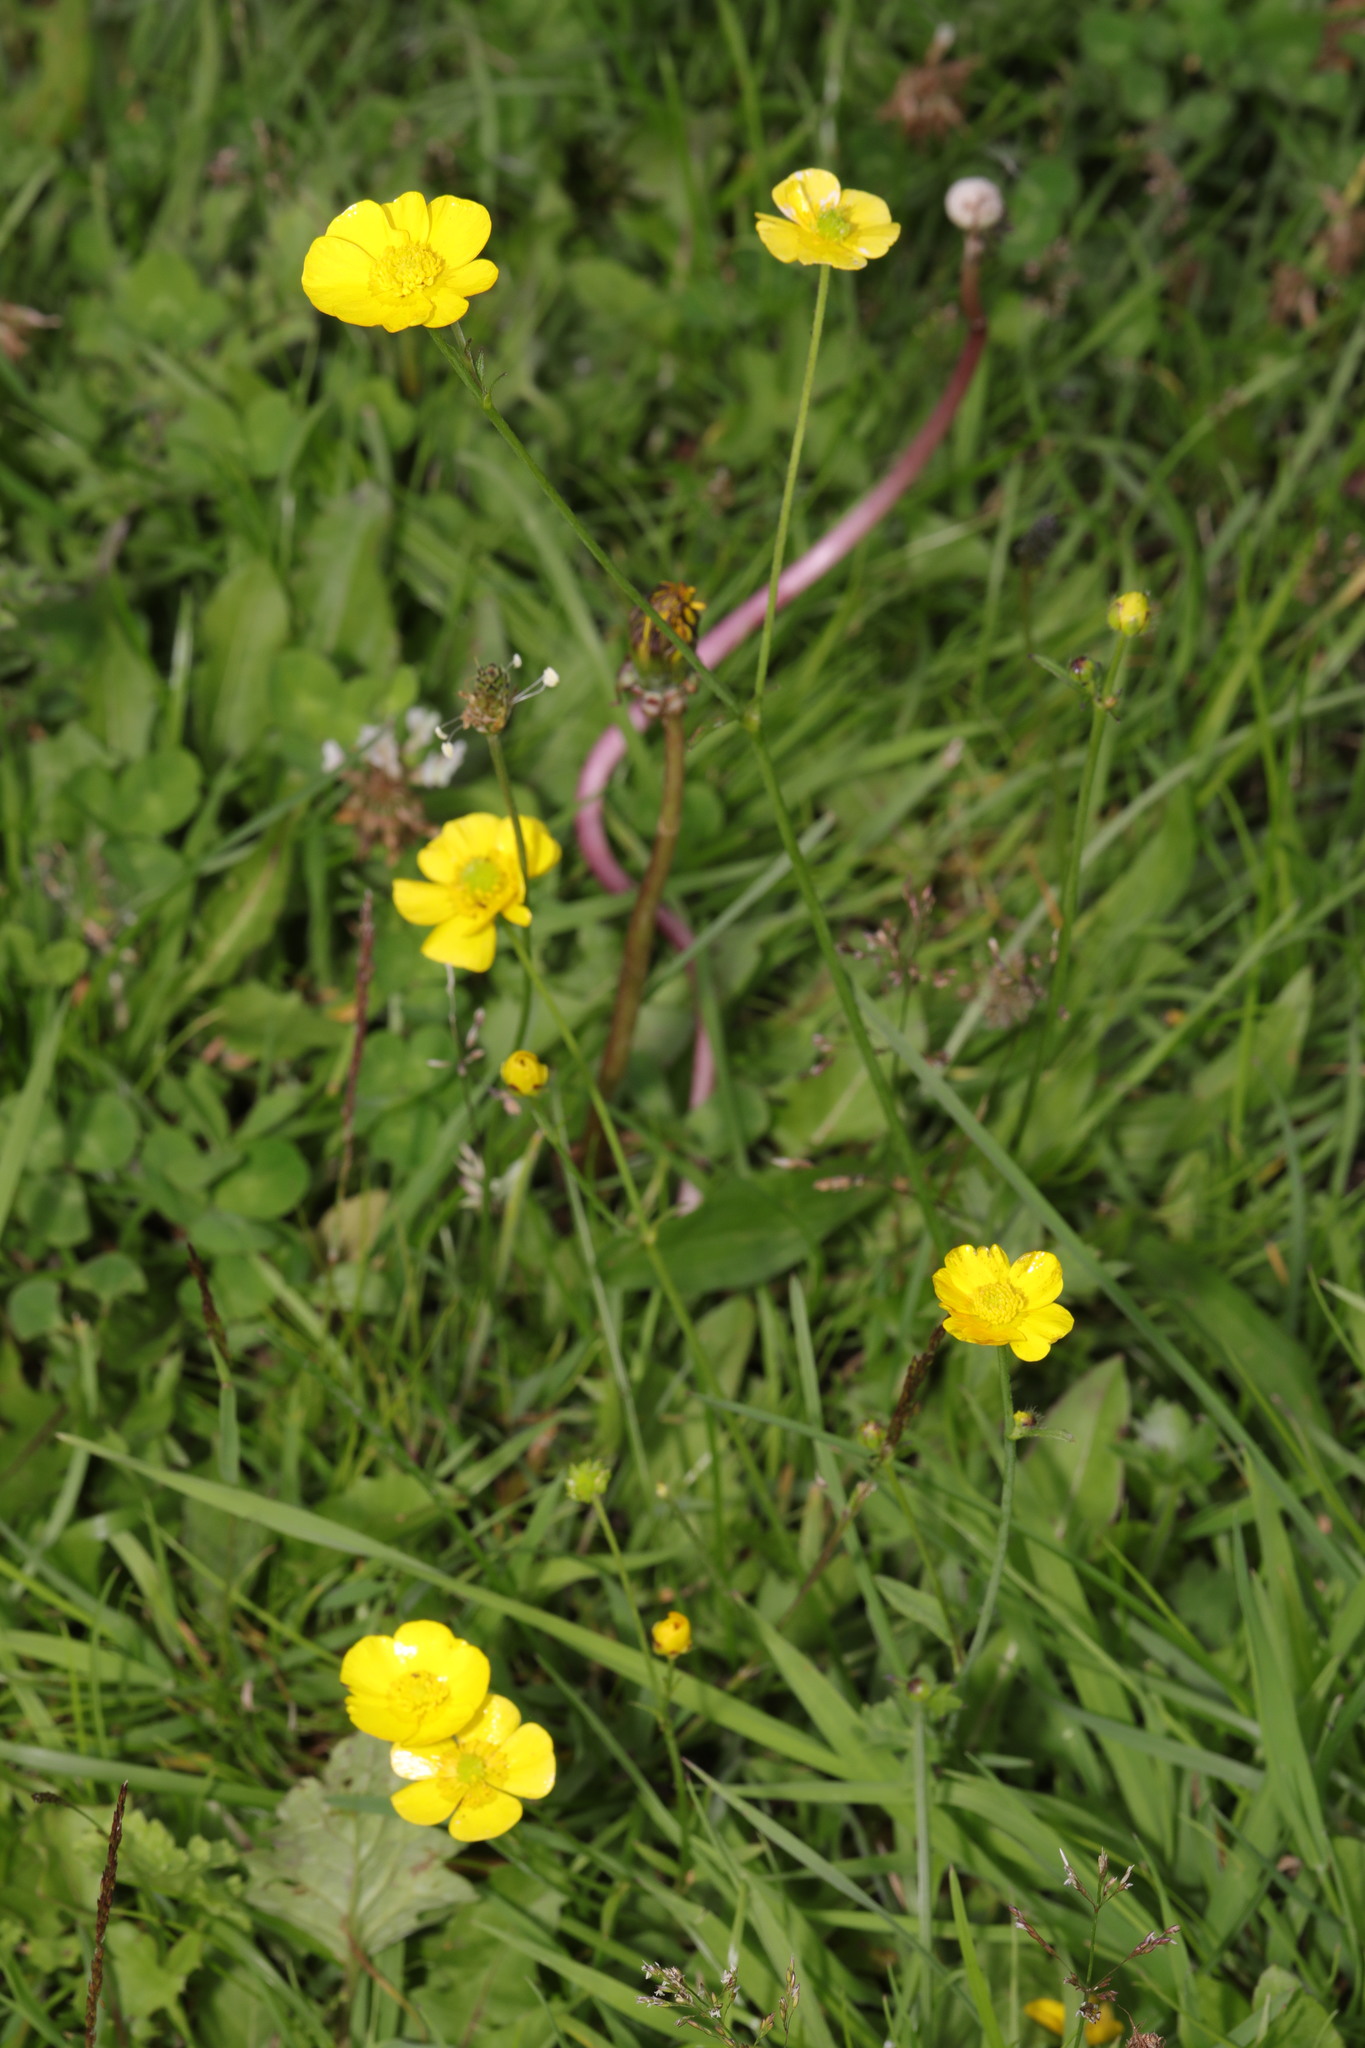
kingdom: Plantae
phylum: Tracheophyta
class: Magnoliopsida
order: Ranunculales
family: Ranunculaceae
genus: Ranunculus
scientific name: Ranunculus repens
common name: Creeping buttercup
